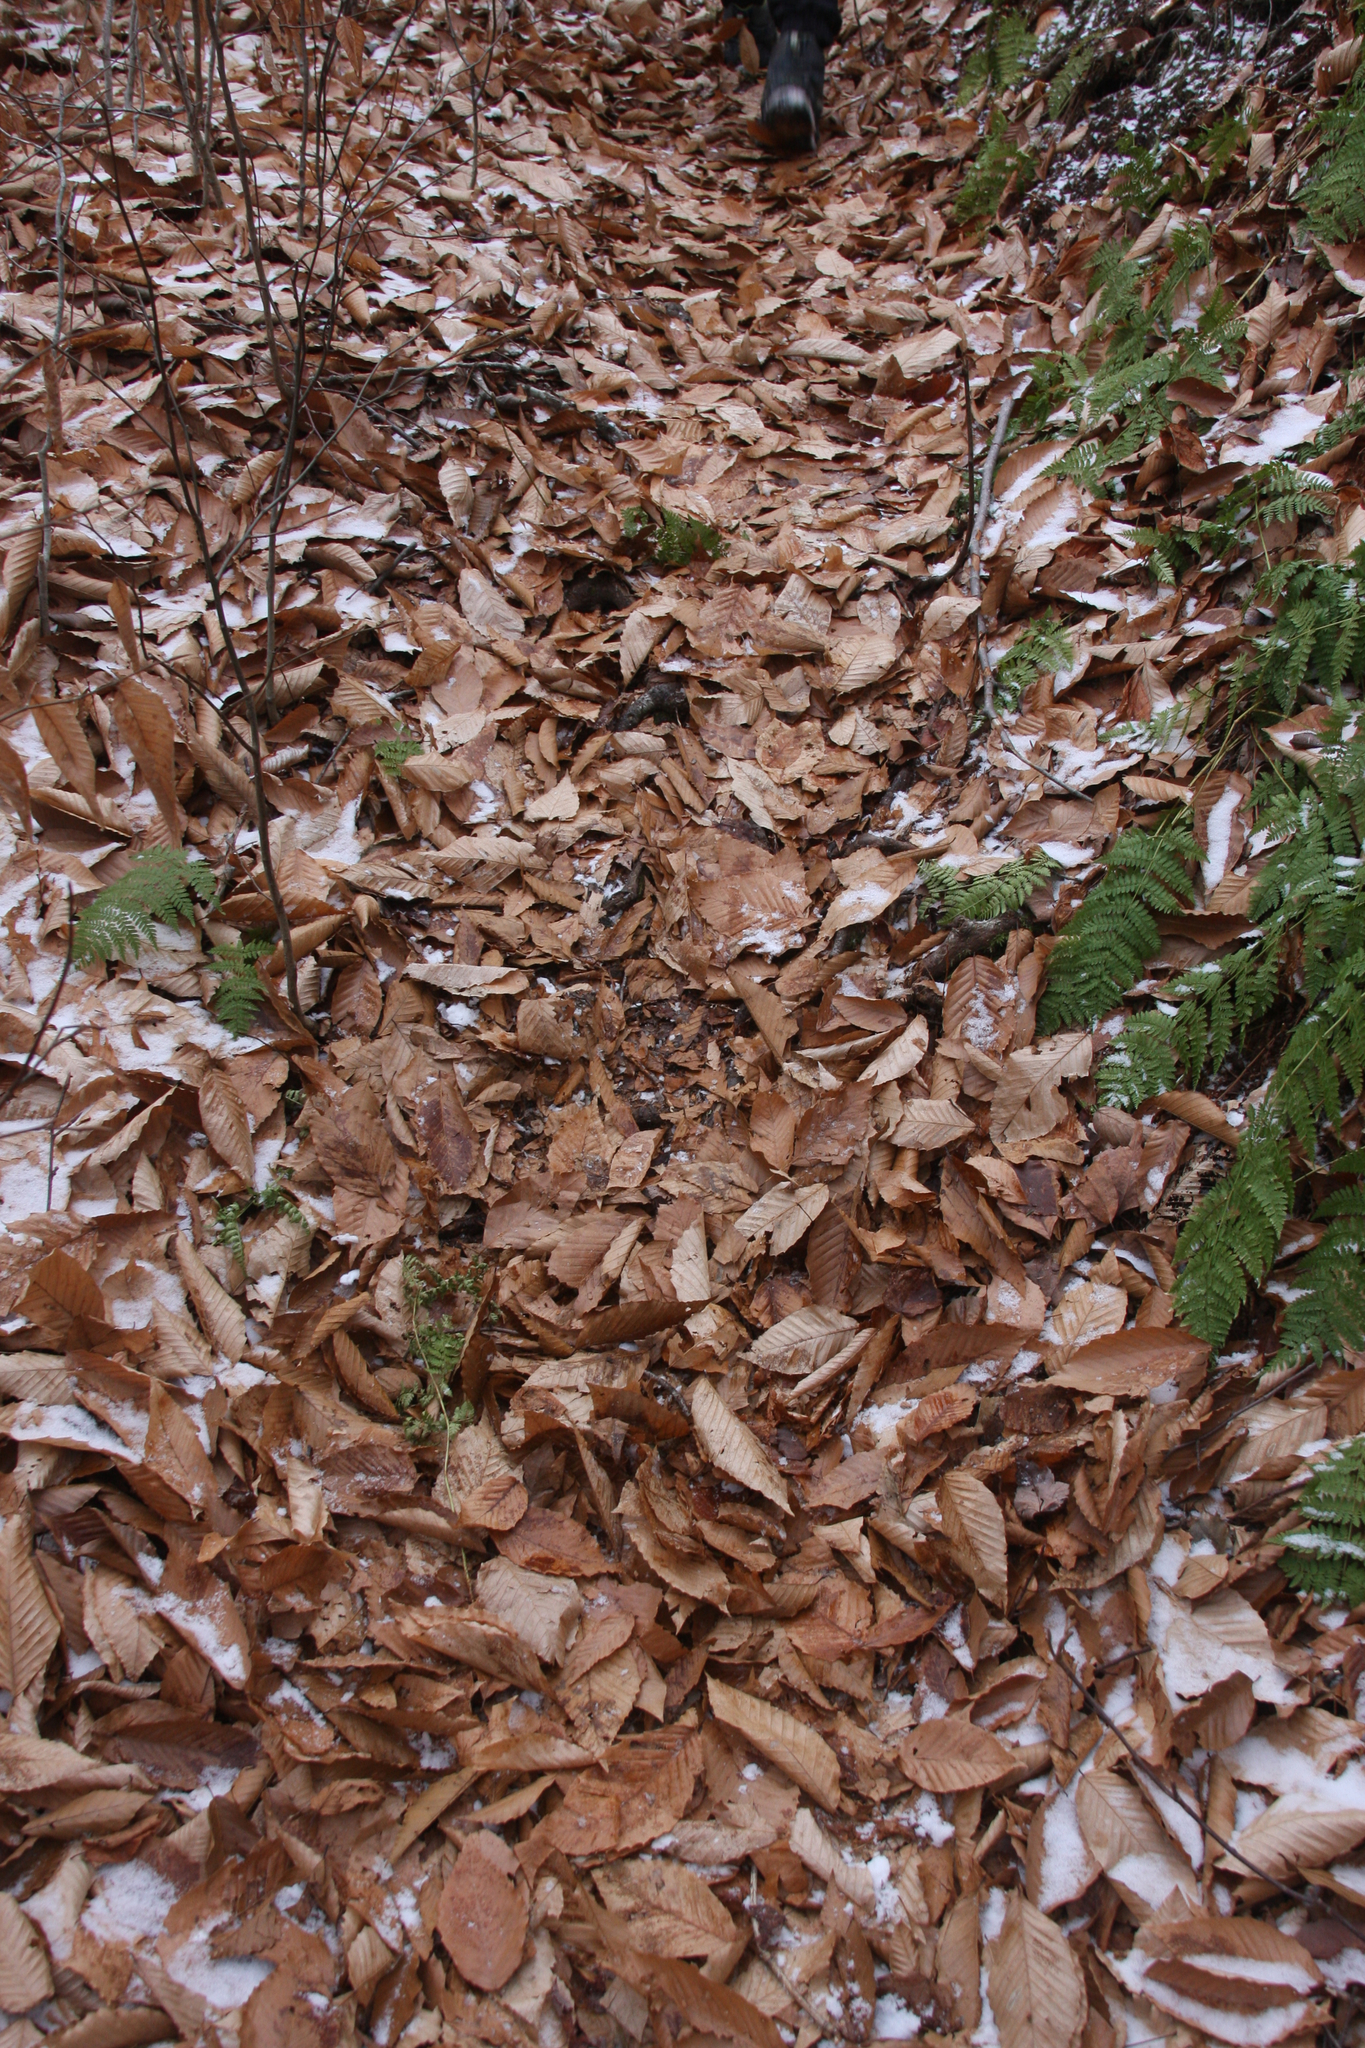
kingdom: Plantae
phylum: Tracheophyta
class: Magnoliopsida
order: Fagales
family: Fagaceae
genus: Fagus
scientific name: Fagus grandifolia
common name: American beech
